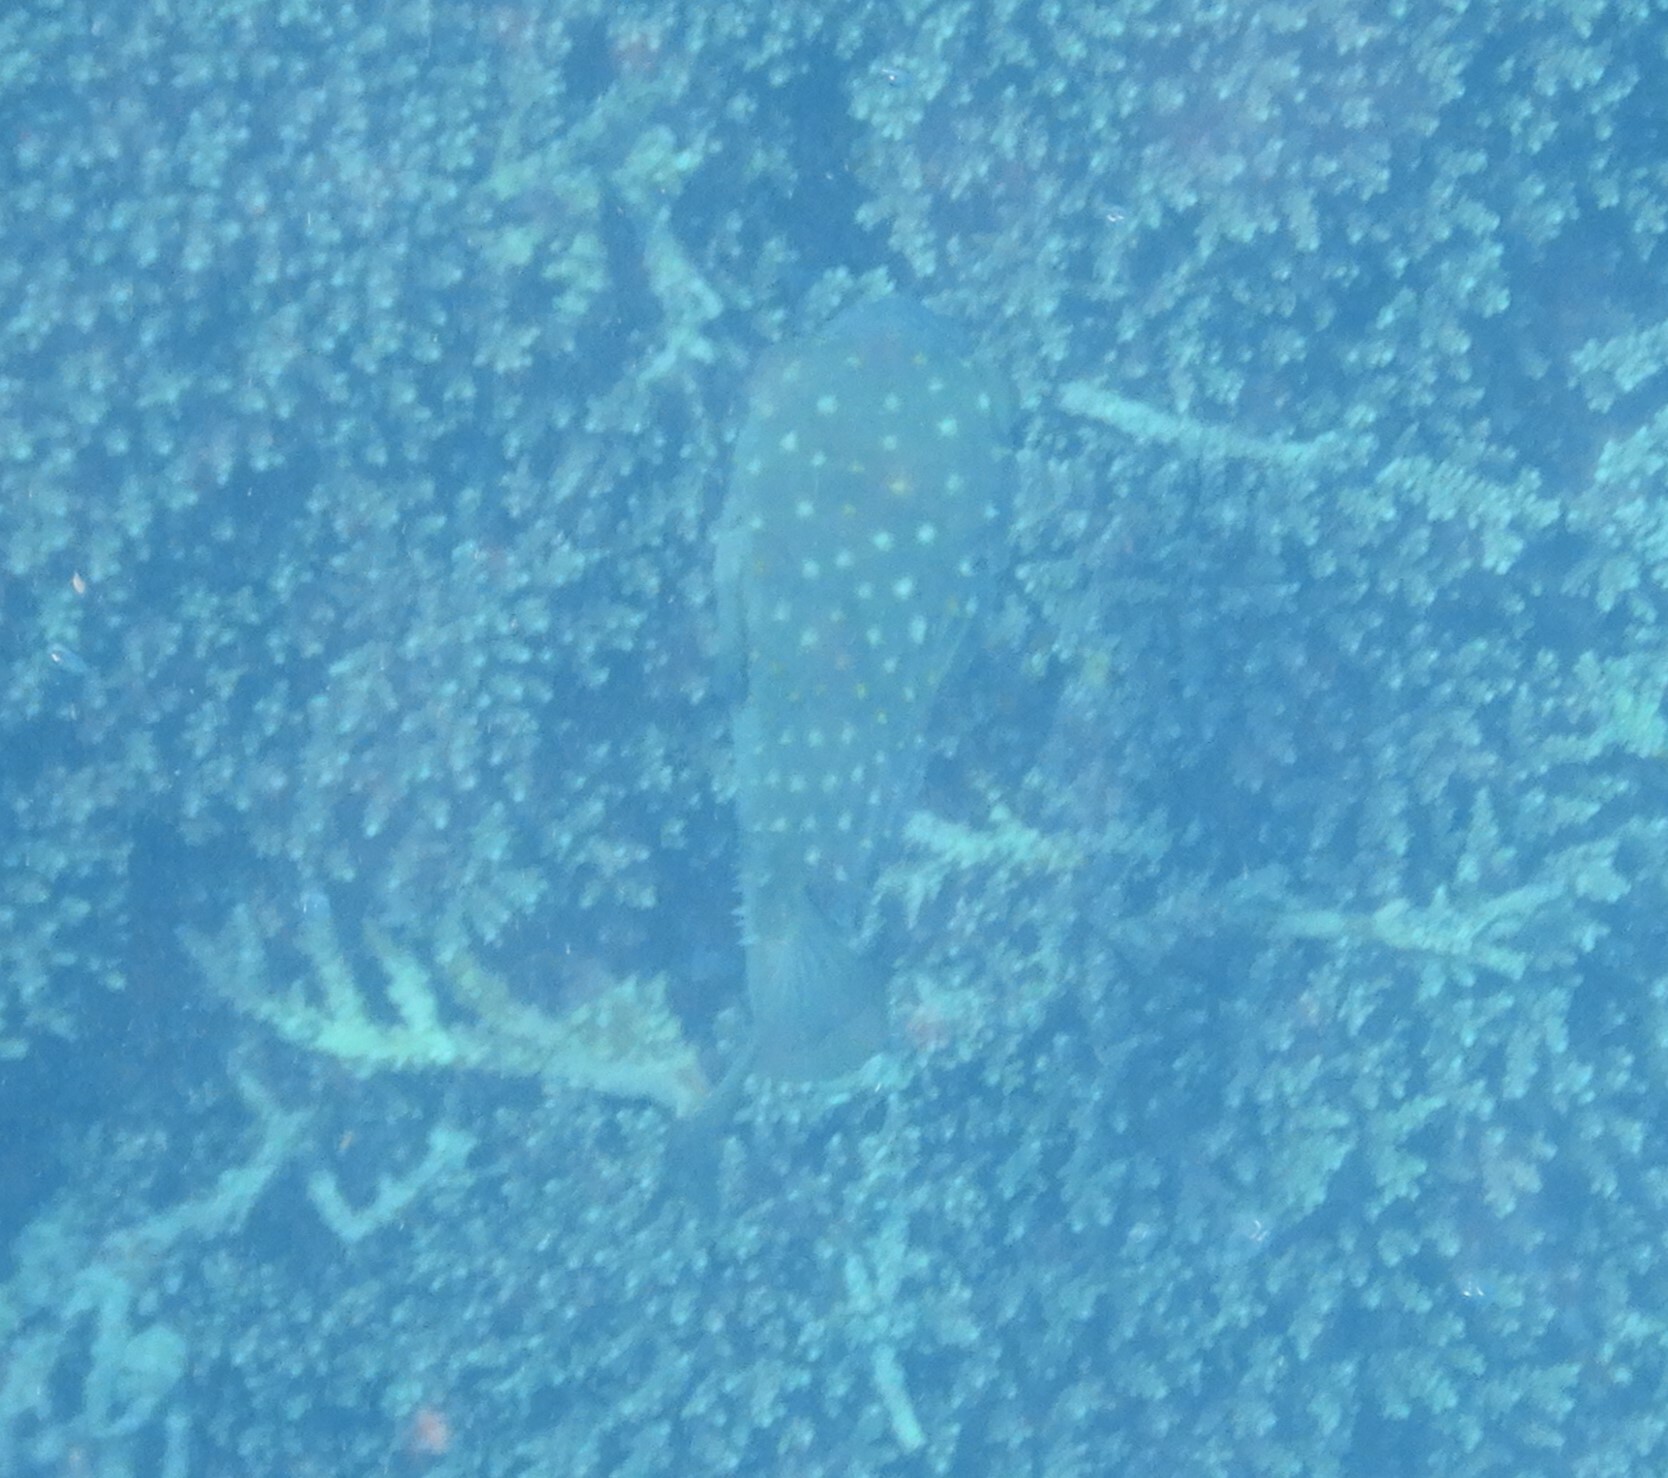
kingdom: Animalia
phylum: Chordata
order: Tetraodontiformes
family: Diodontidae
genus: Cyclichthys
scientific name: Cyclichthys spilostylus
